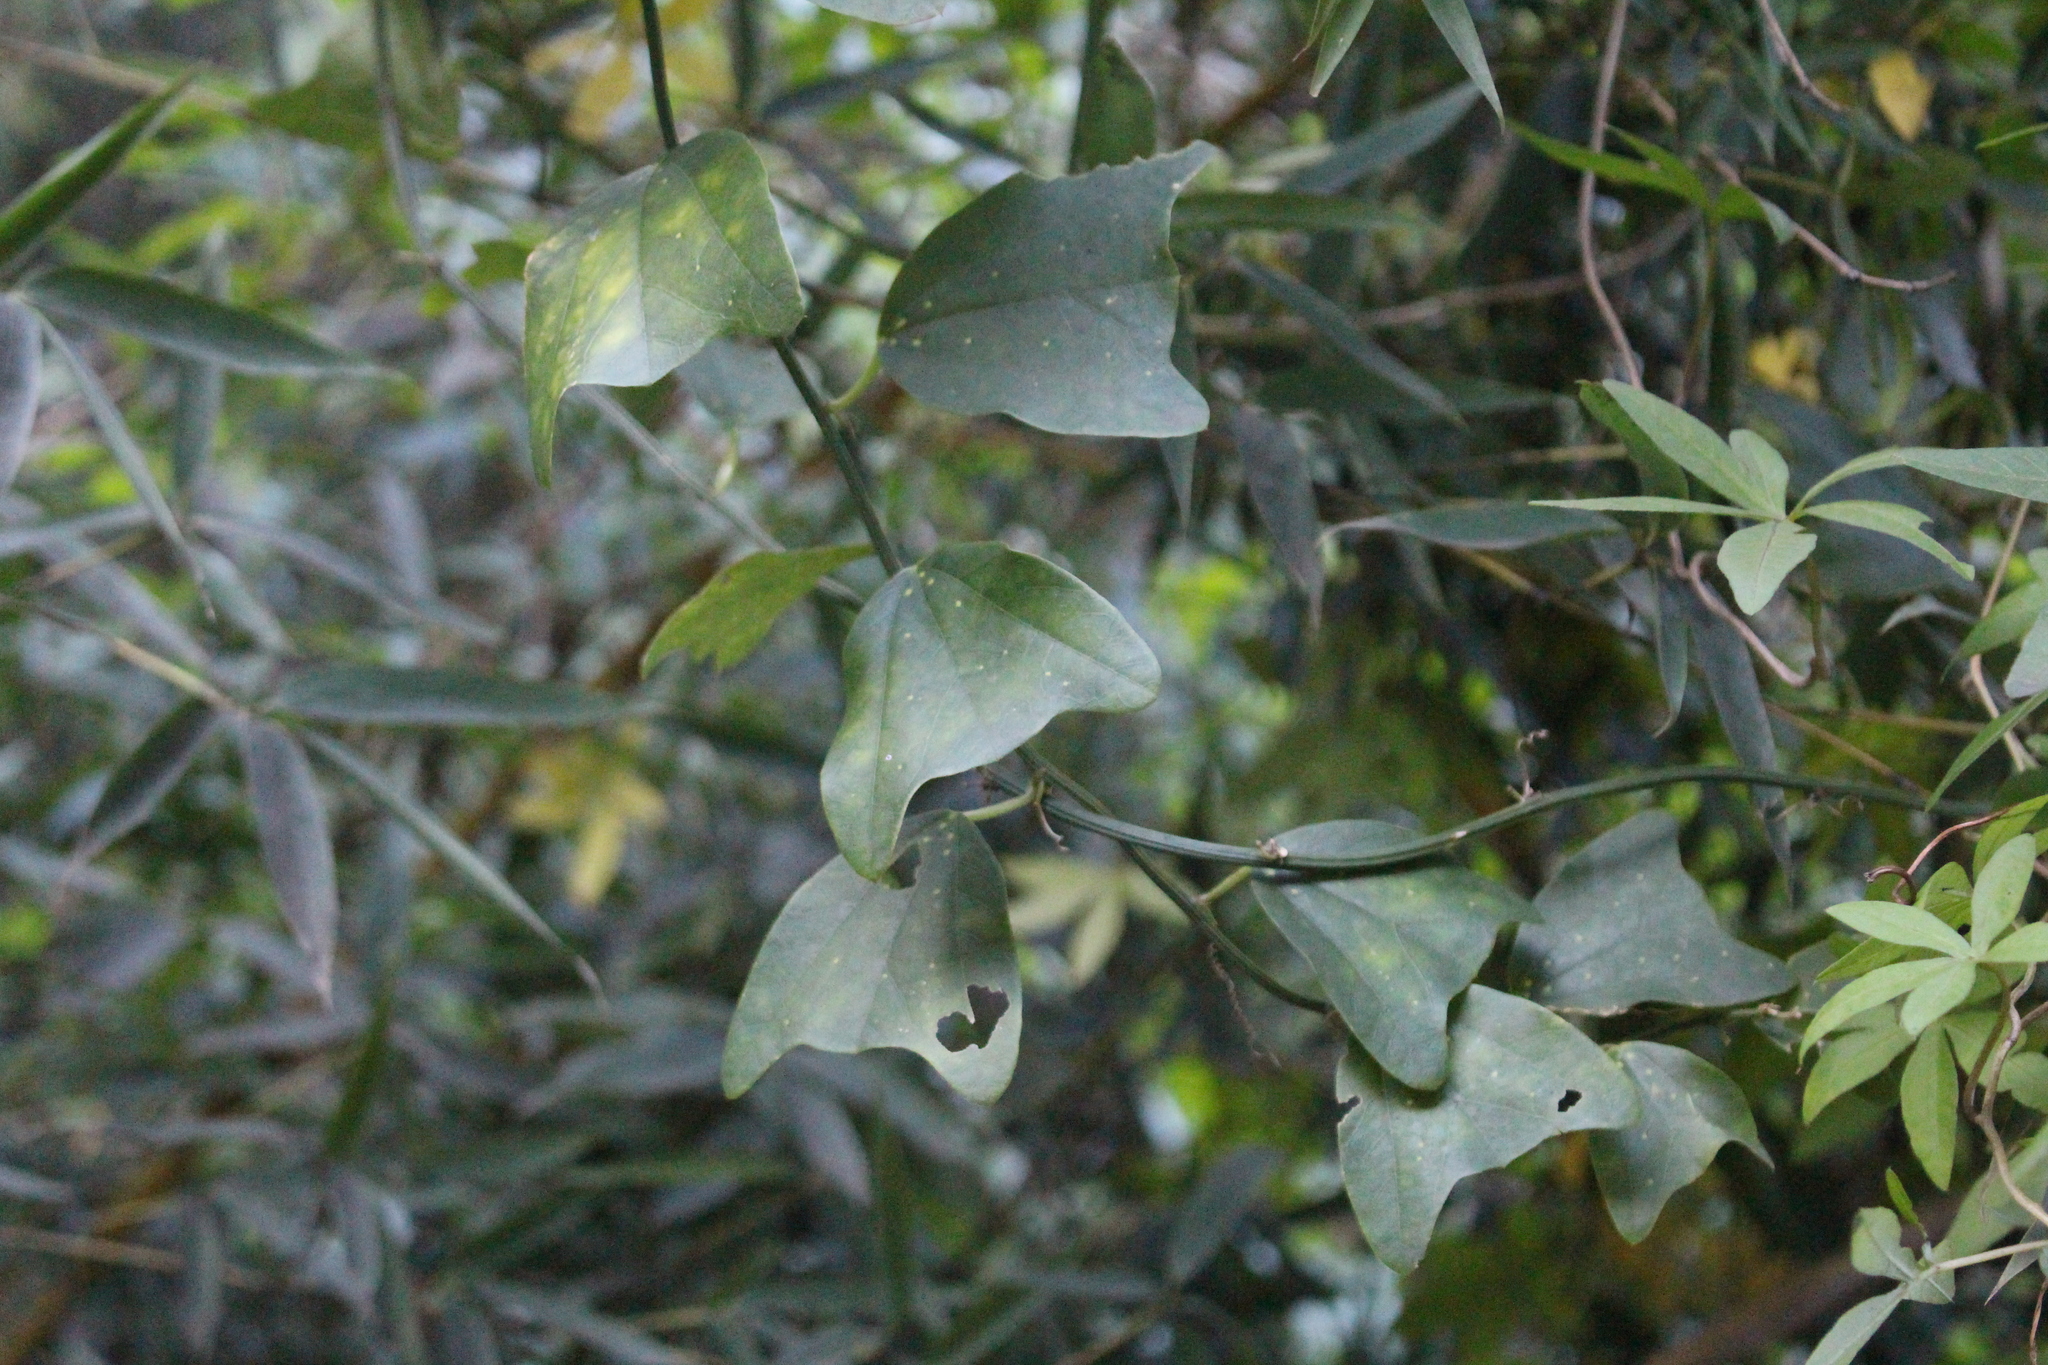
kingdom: Plantae
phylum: Tracheophyta
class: Magnoliopsida
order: Malpighiales
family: Passifloraceae
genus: Passiflora
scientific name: Passiflora biflora
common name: Twoflower passionflower
